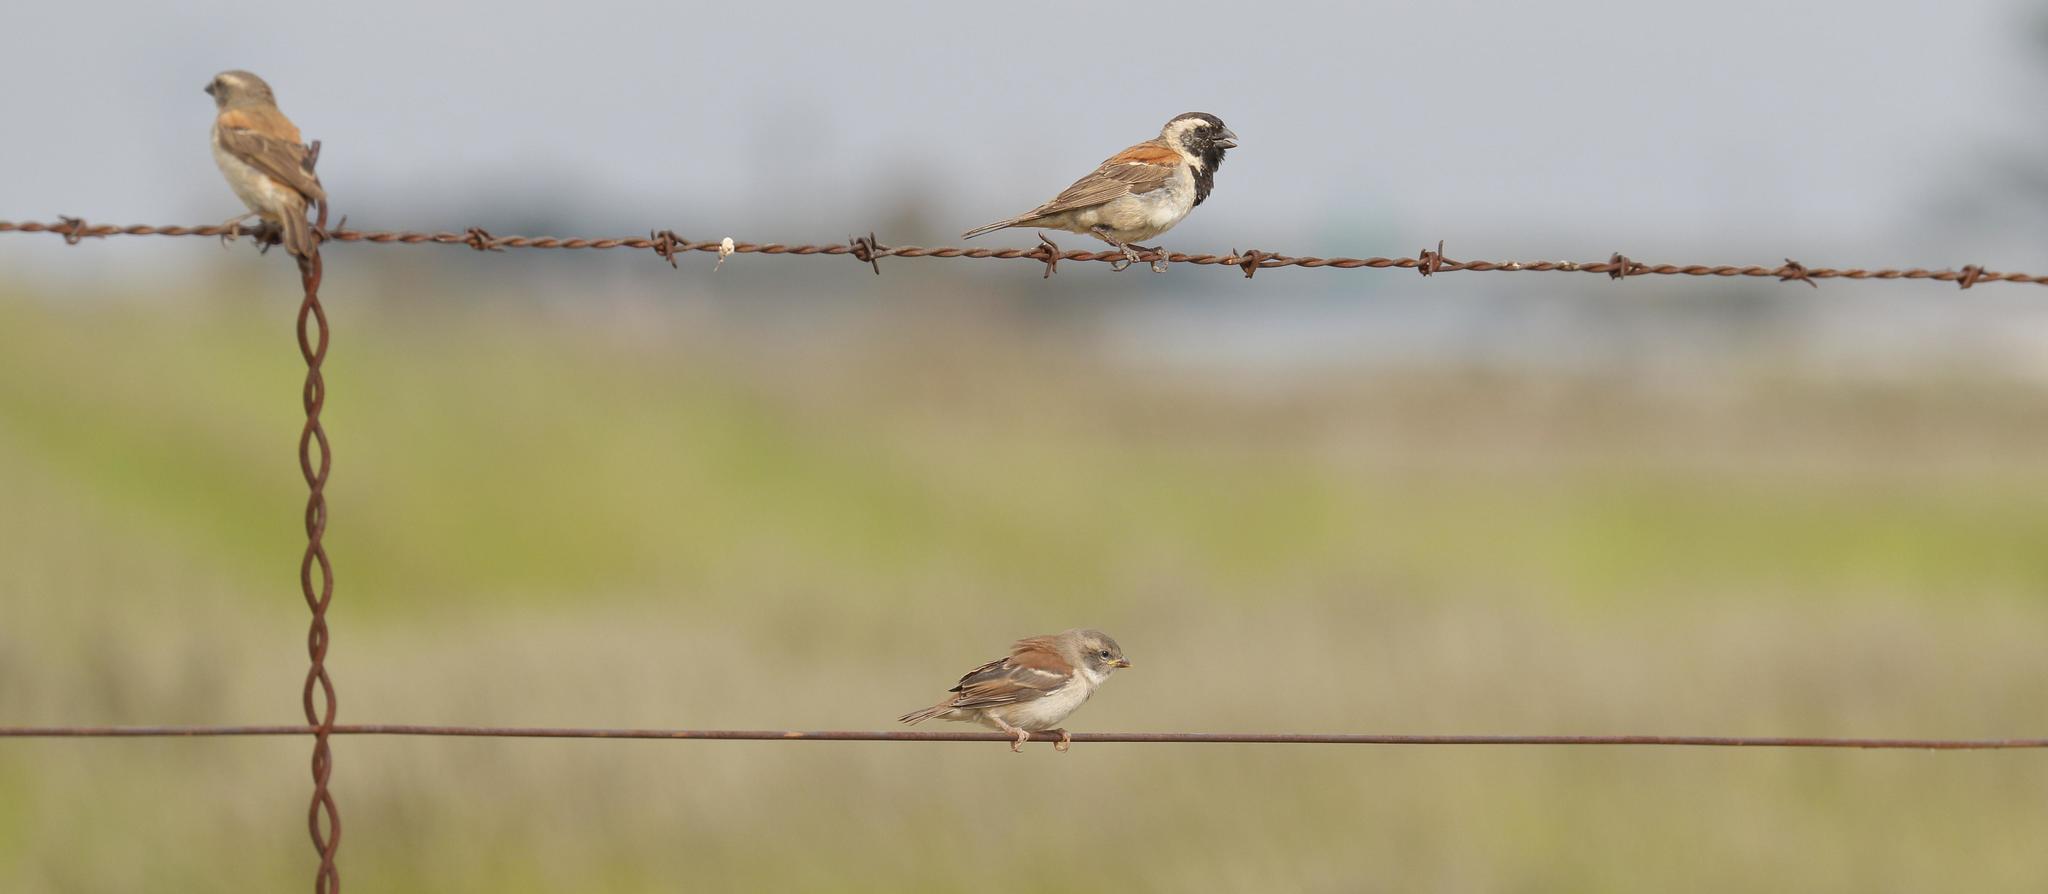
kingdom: Animalia
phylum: Chordata
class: Aves
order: Passeriformes
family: Passeridae
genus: Passer
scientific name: Passer melanurus
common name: Cape sparrow
